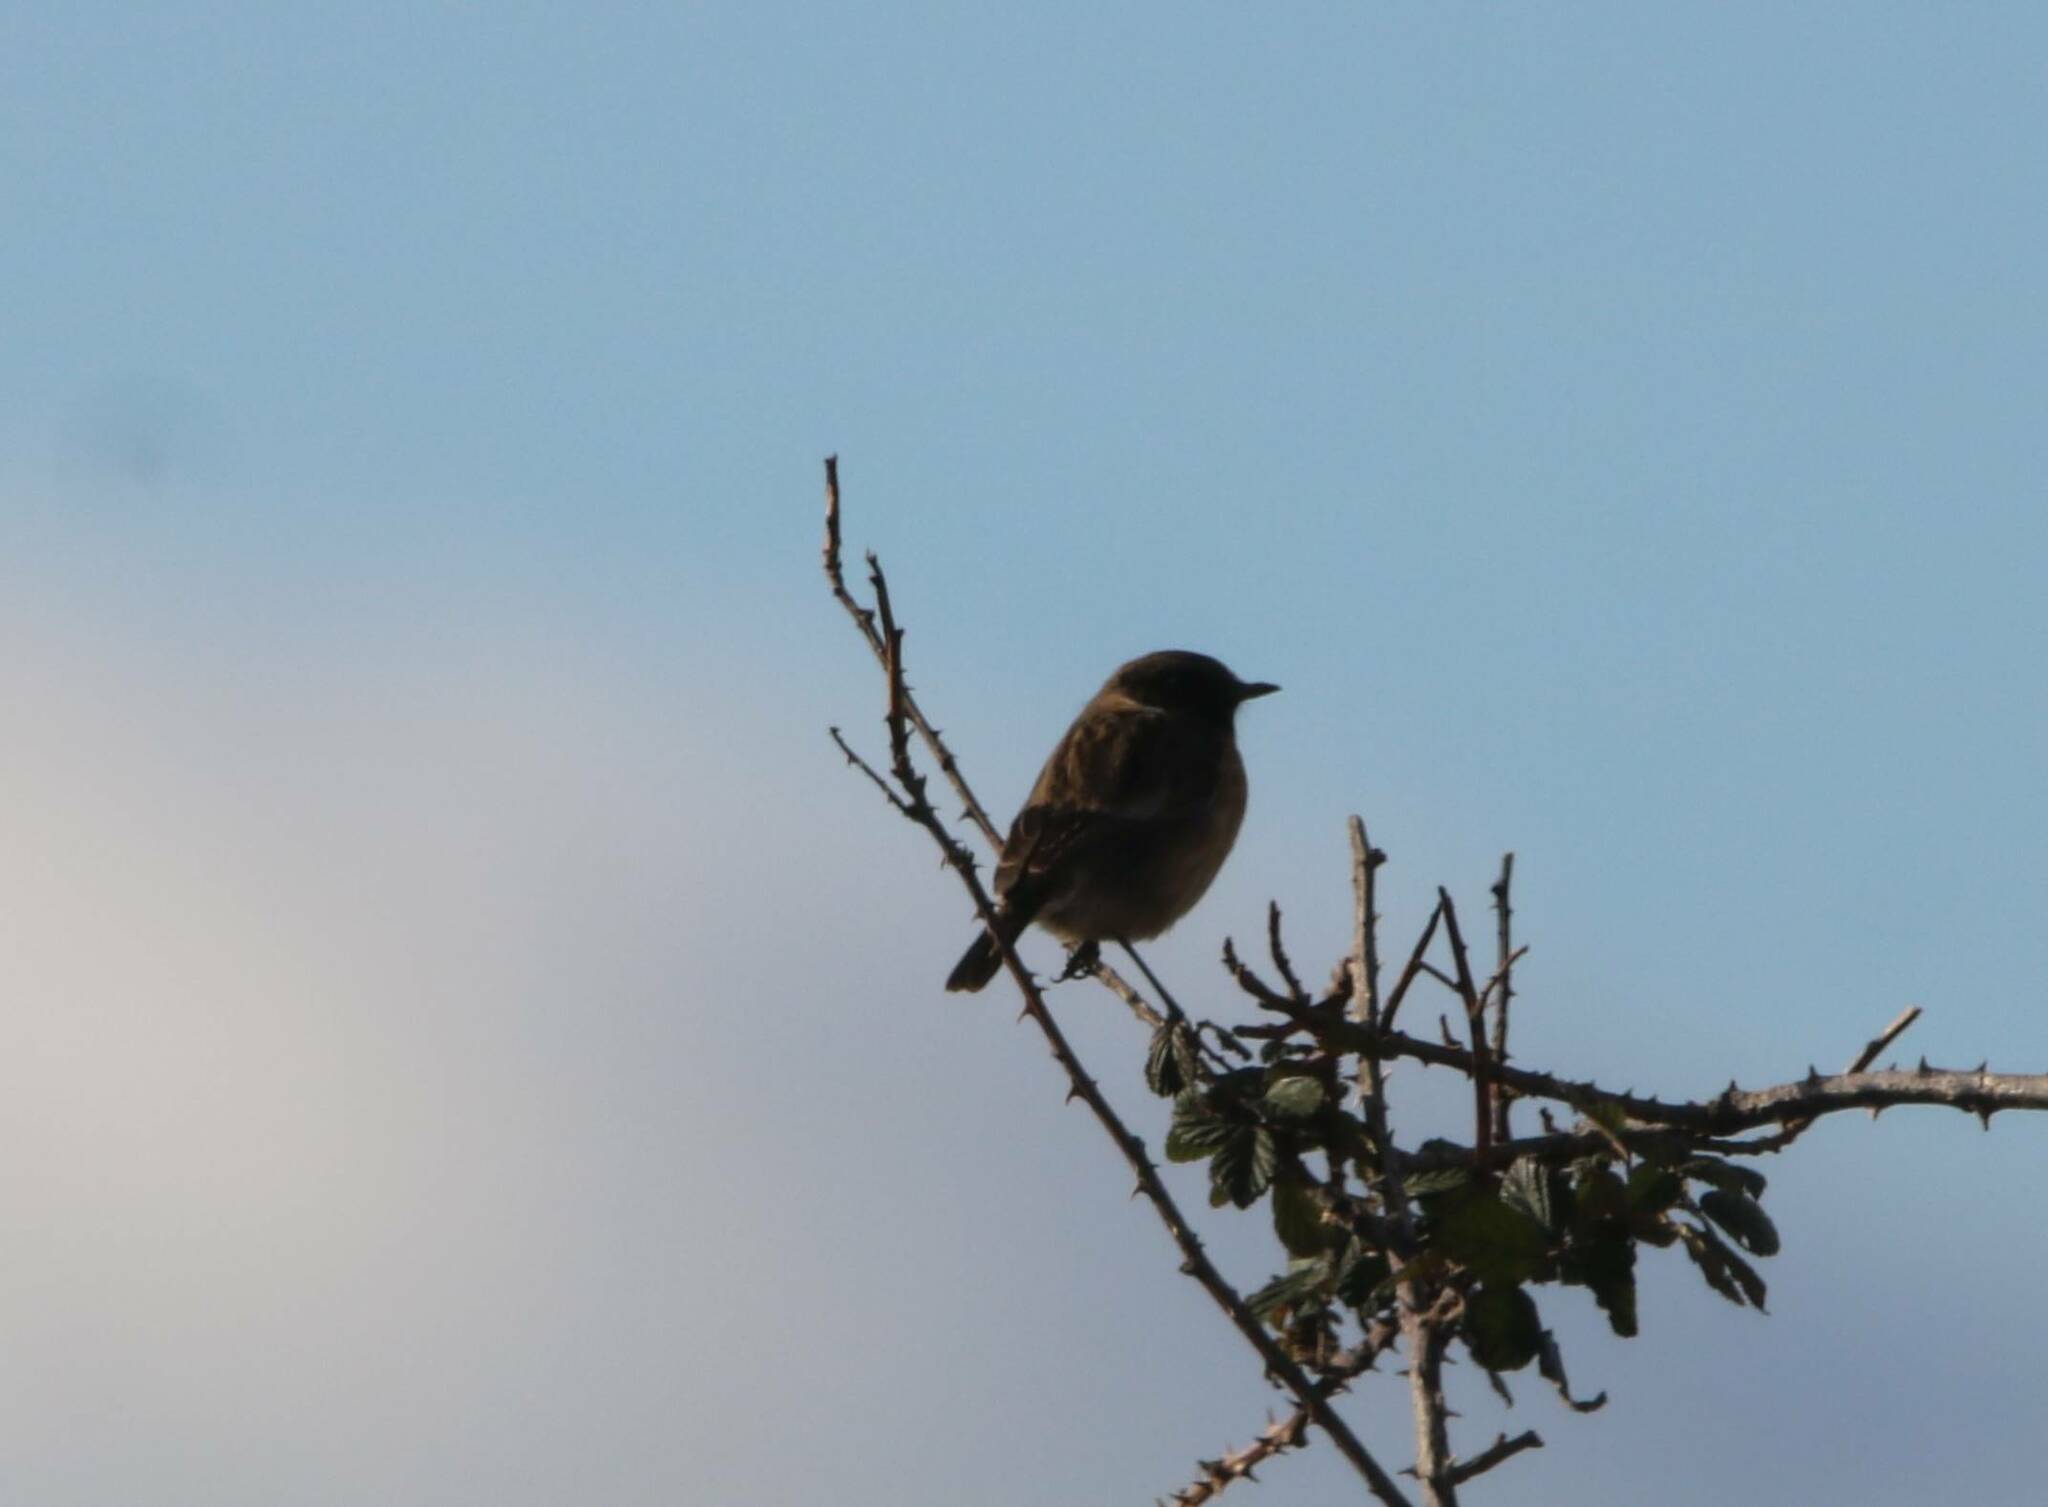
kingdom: Animalia
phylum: Chordata
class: Aves
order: Passeriformes
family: Muscicapidae
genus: Saxicola
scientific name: Saxicola rubicola
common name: European stonechat
